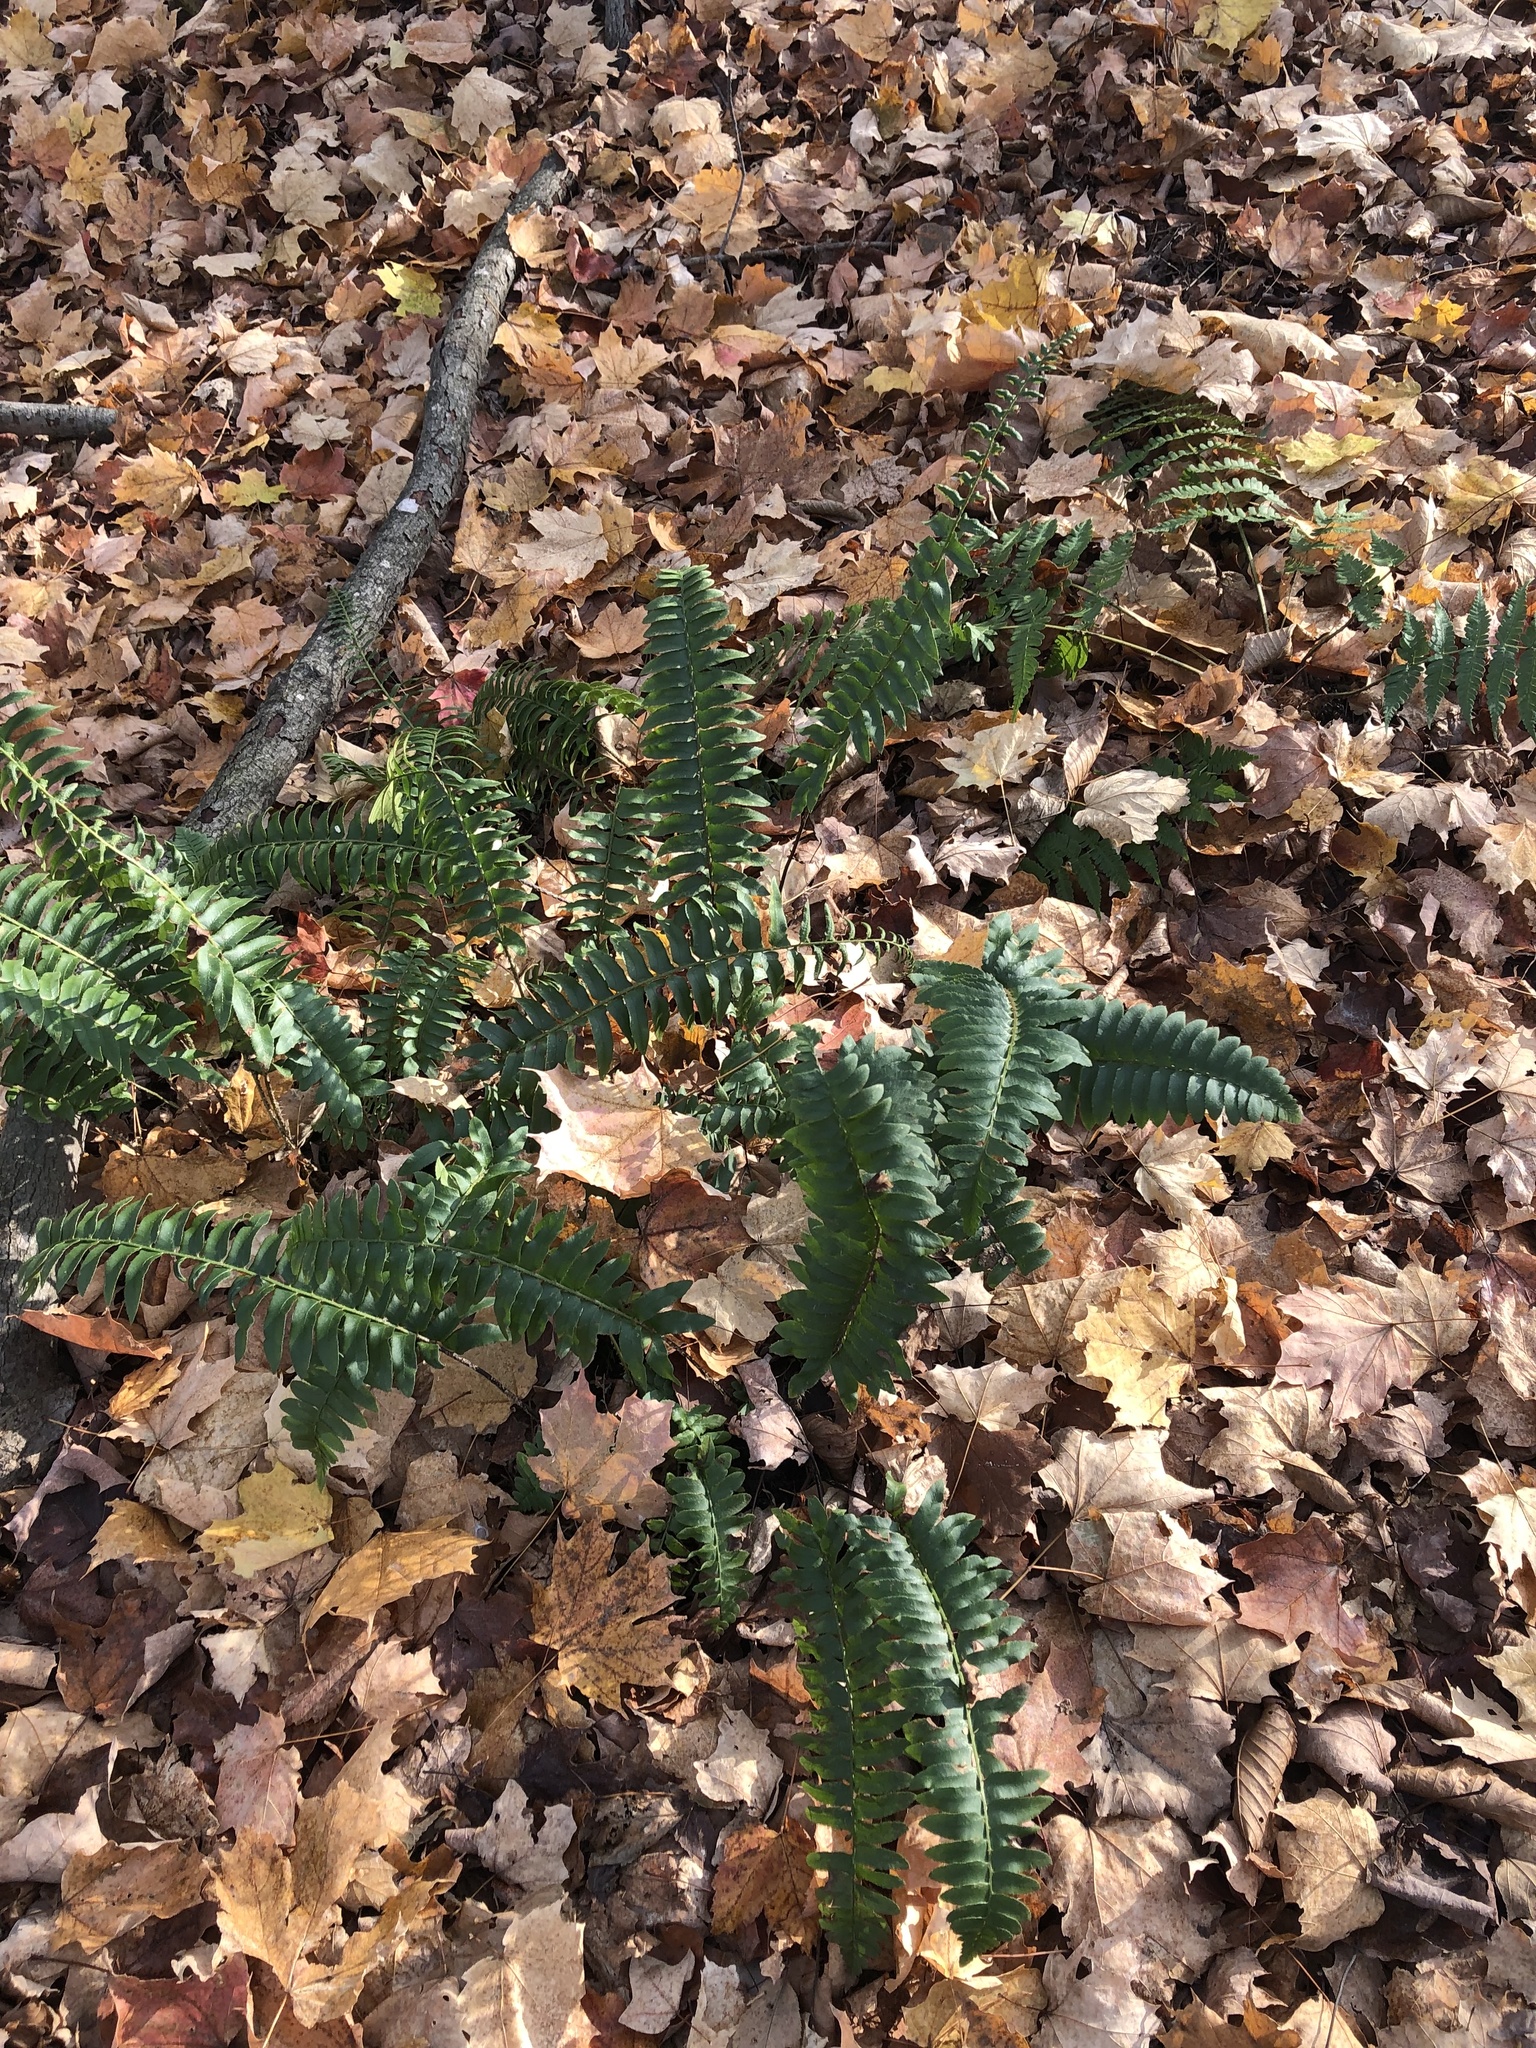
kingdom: Plantae
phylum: Tracheophyta
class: Polypodiopsida
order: Polypodiales
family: Dryopteridaceae
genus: Polystichum
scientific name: Polystichum acrostichoides
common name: Christmas fern
